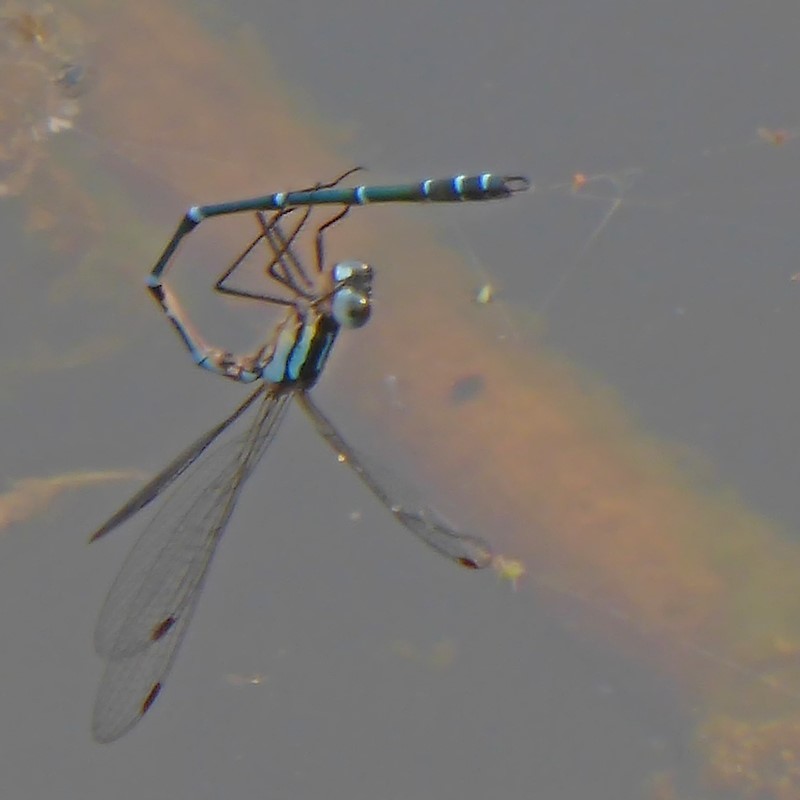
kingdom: Animalia
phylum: Arthropoda
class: Insecta
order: Odonata
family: Lestidae
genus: Austrolestes
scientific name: Austrolestes psyche
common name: Cup ringtail
